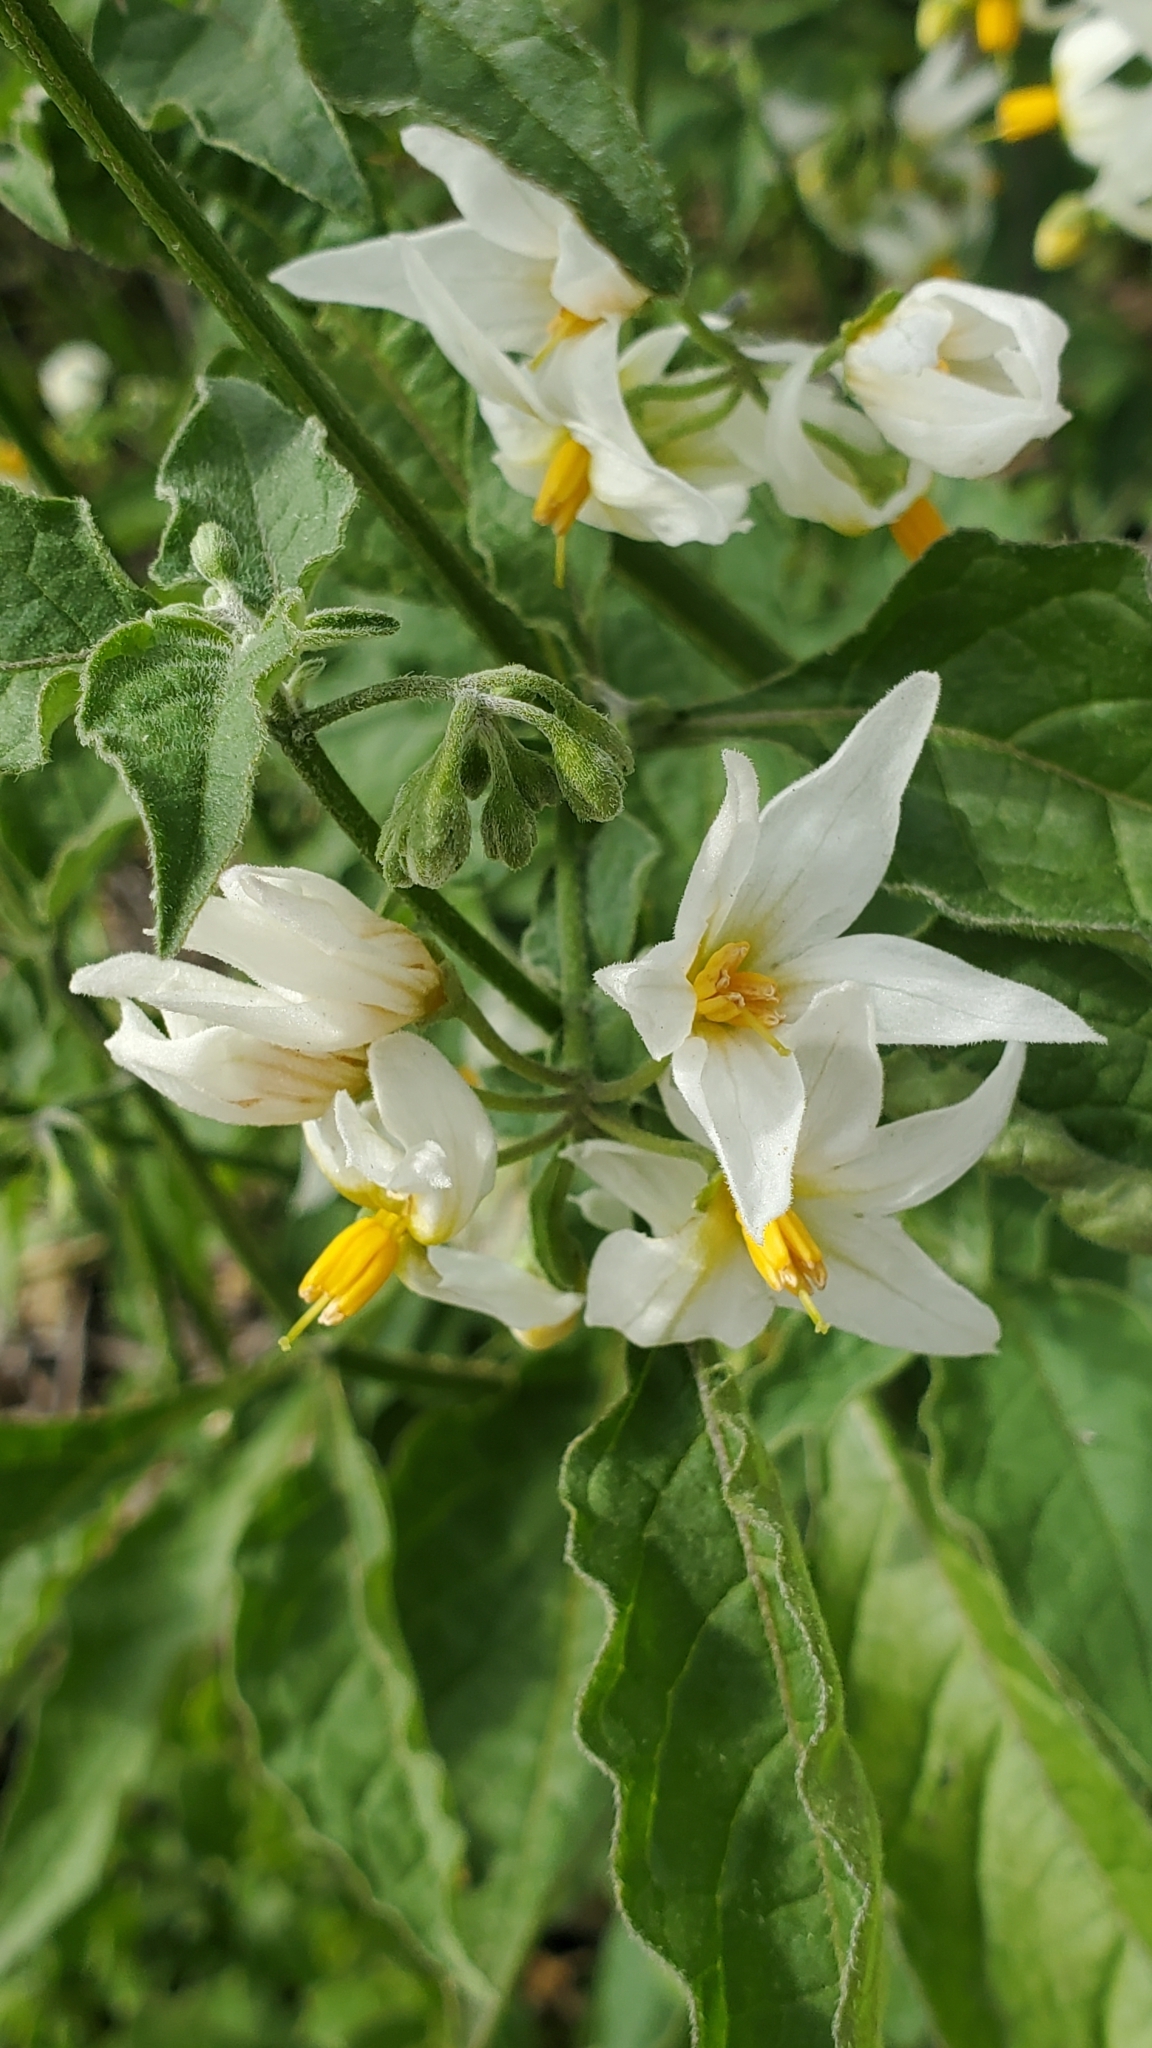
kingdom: Plantae
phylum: Tracheophyta
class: Magnoliopsida
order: Solanales
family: Solanaceae
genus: Solanum
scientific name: Solanum douglasii
